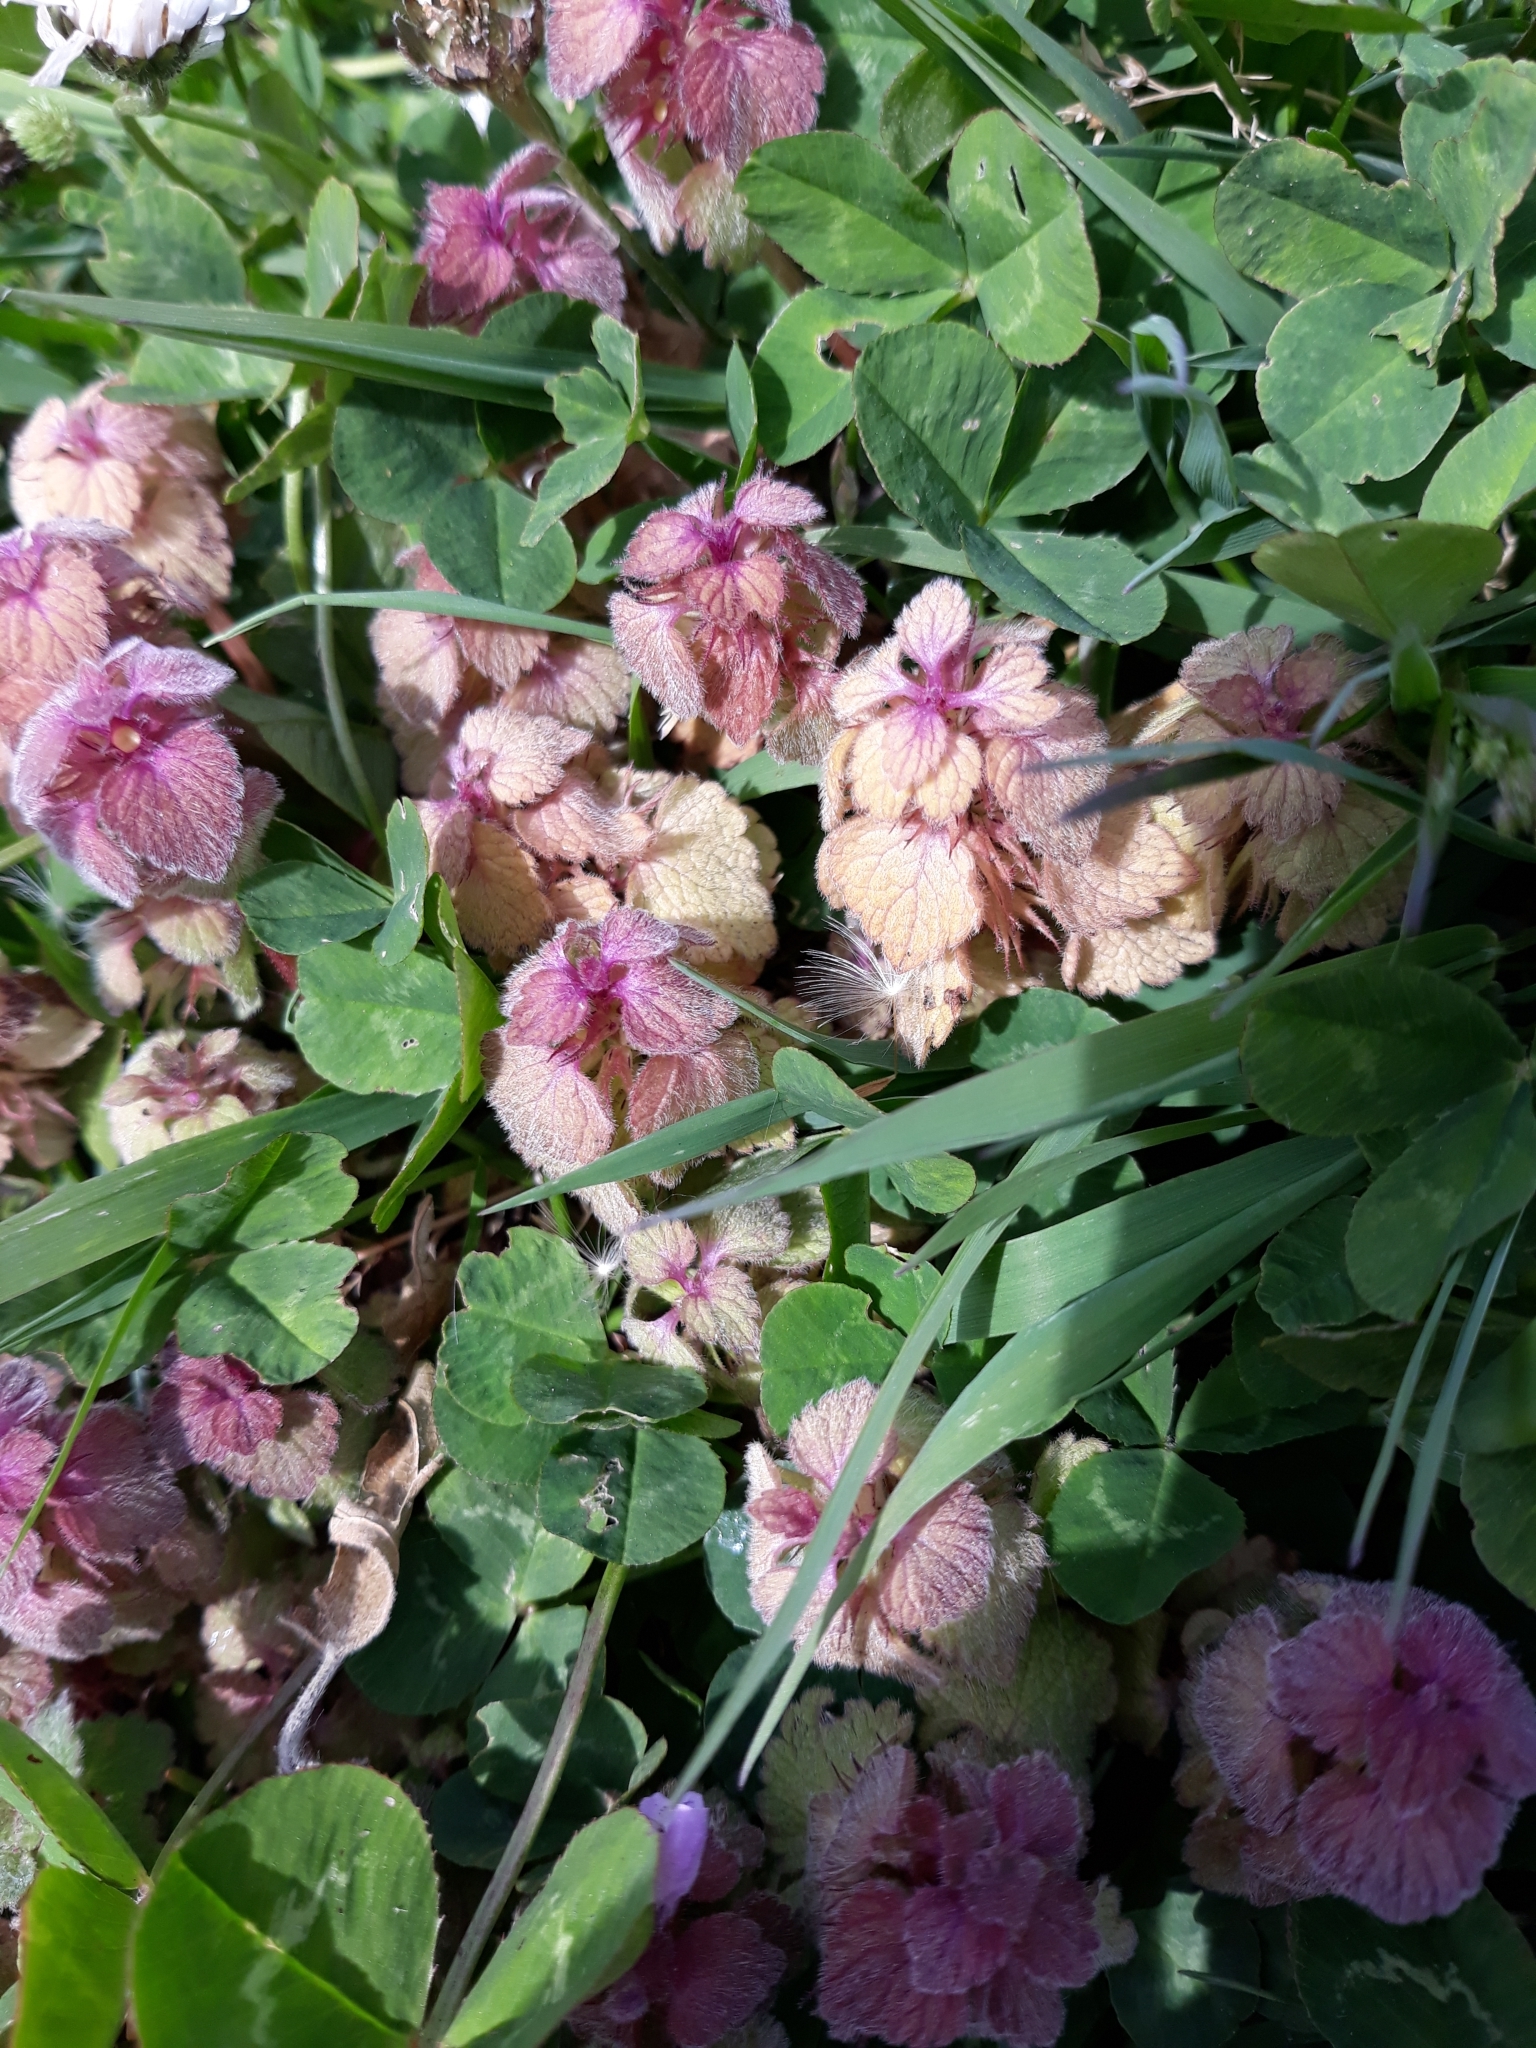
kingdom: Plantae
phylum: Tracheophyta
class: Magnoliopsida
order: Fabales
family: Fabaceae
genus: Trifolium
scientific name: Trifolium repens
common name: White clover
